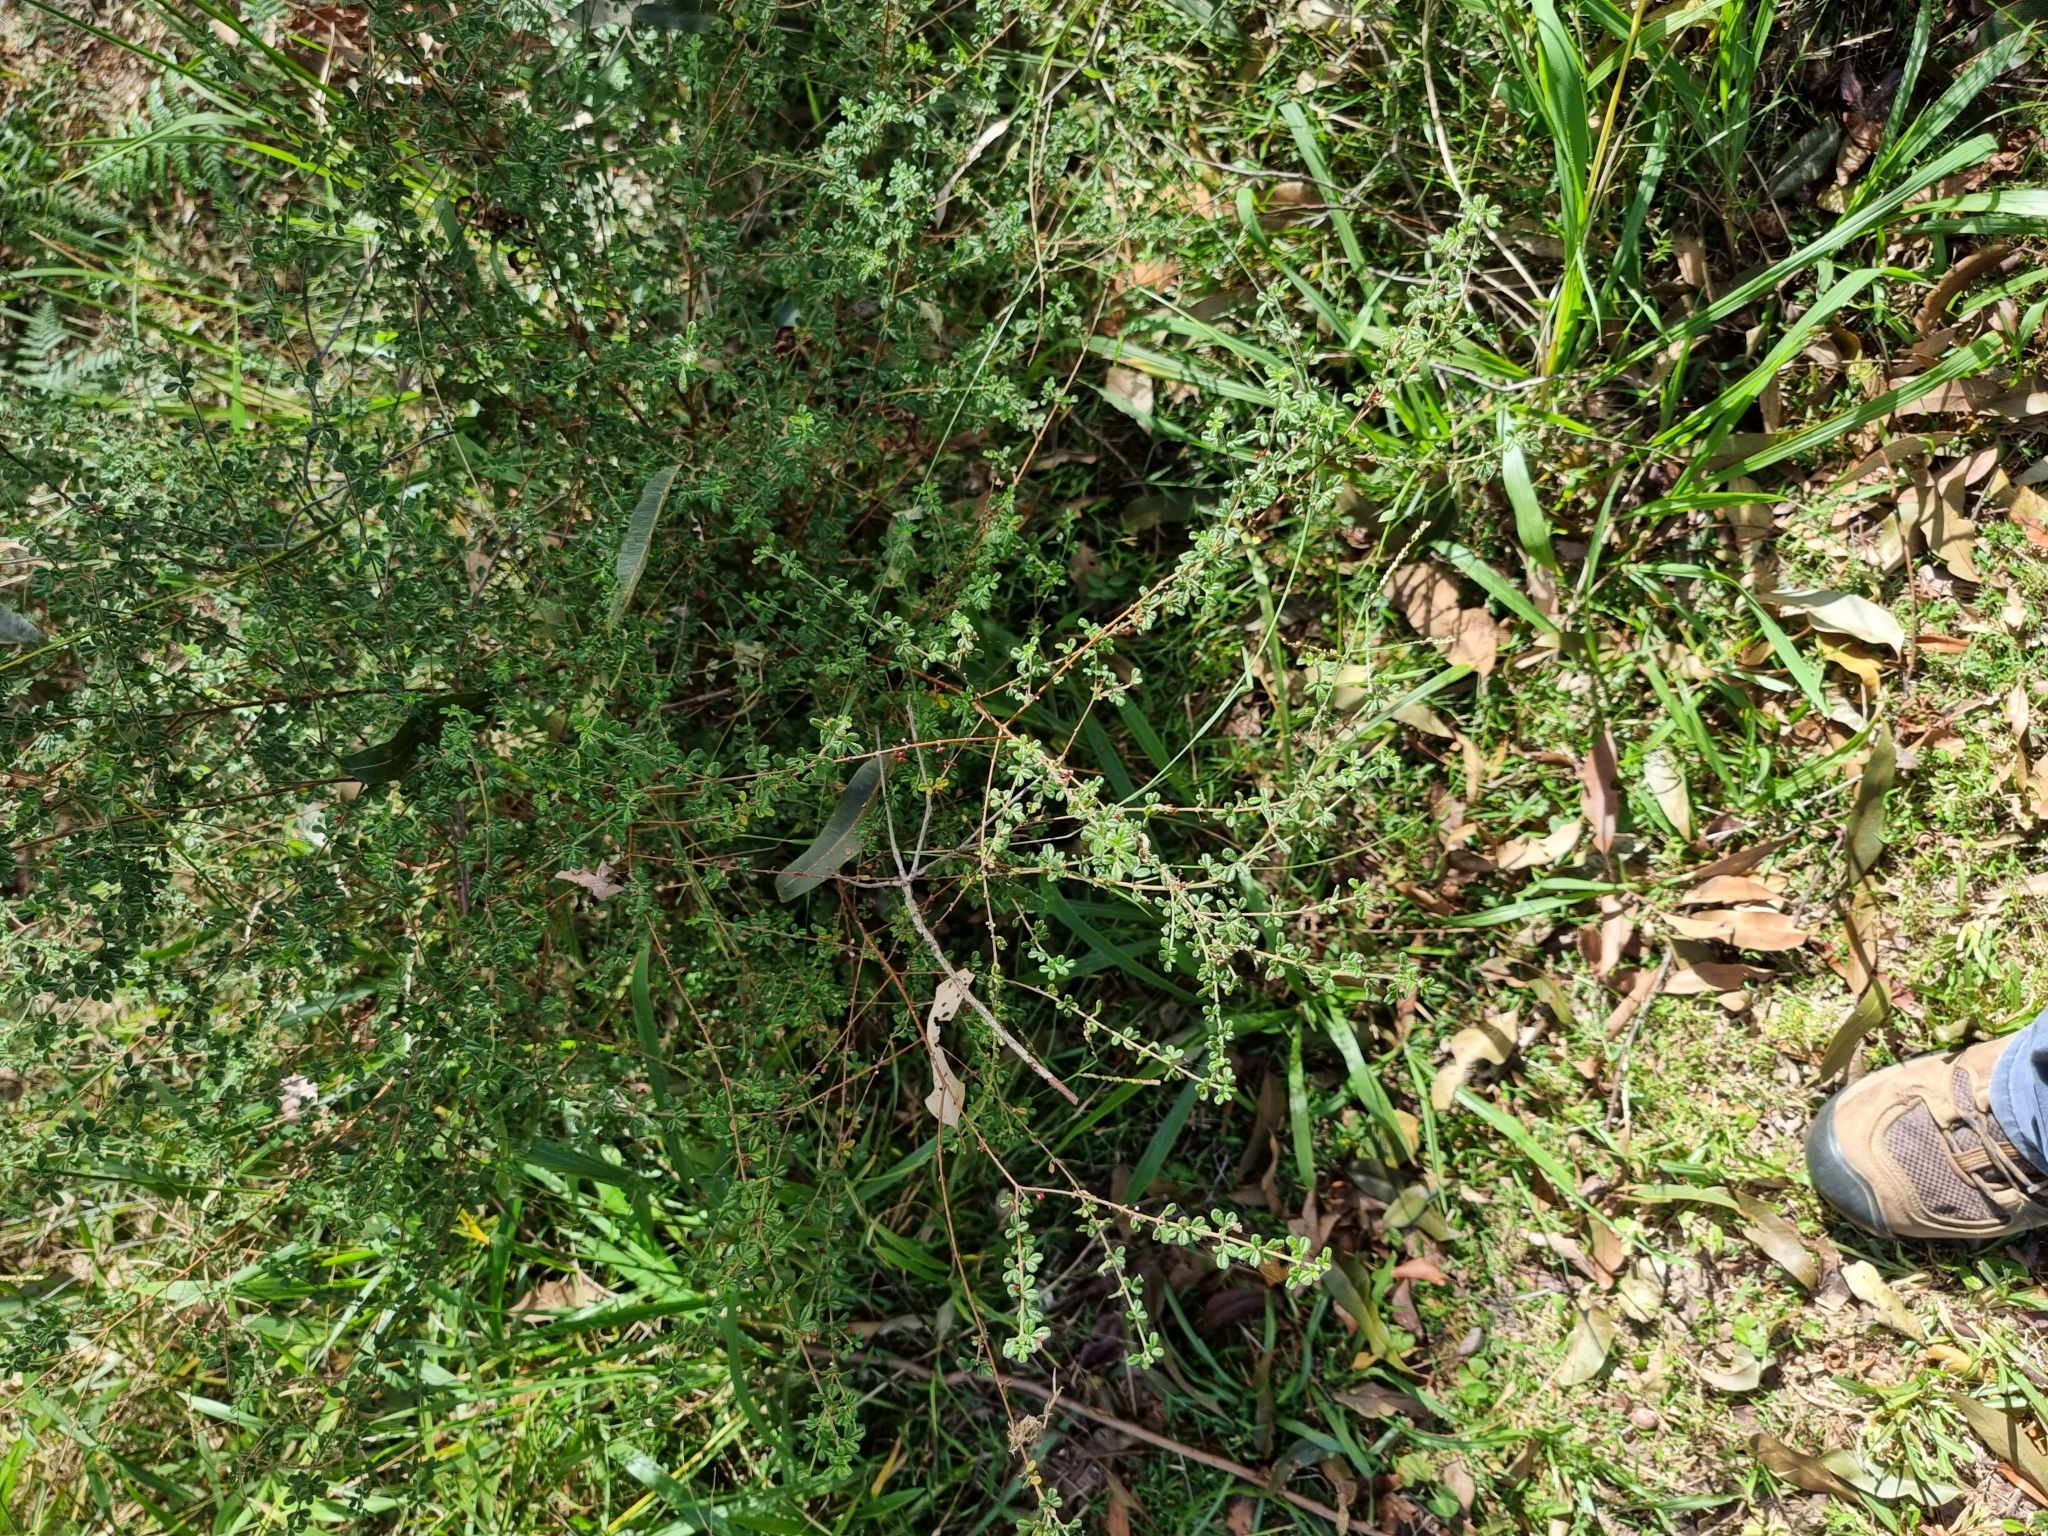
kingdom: Plantae
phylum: Tracheophyta
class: Magnoliopsida
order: Sapindales
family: Rutaceae
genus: Zieria
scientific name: Zieria minutiflora
